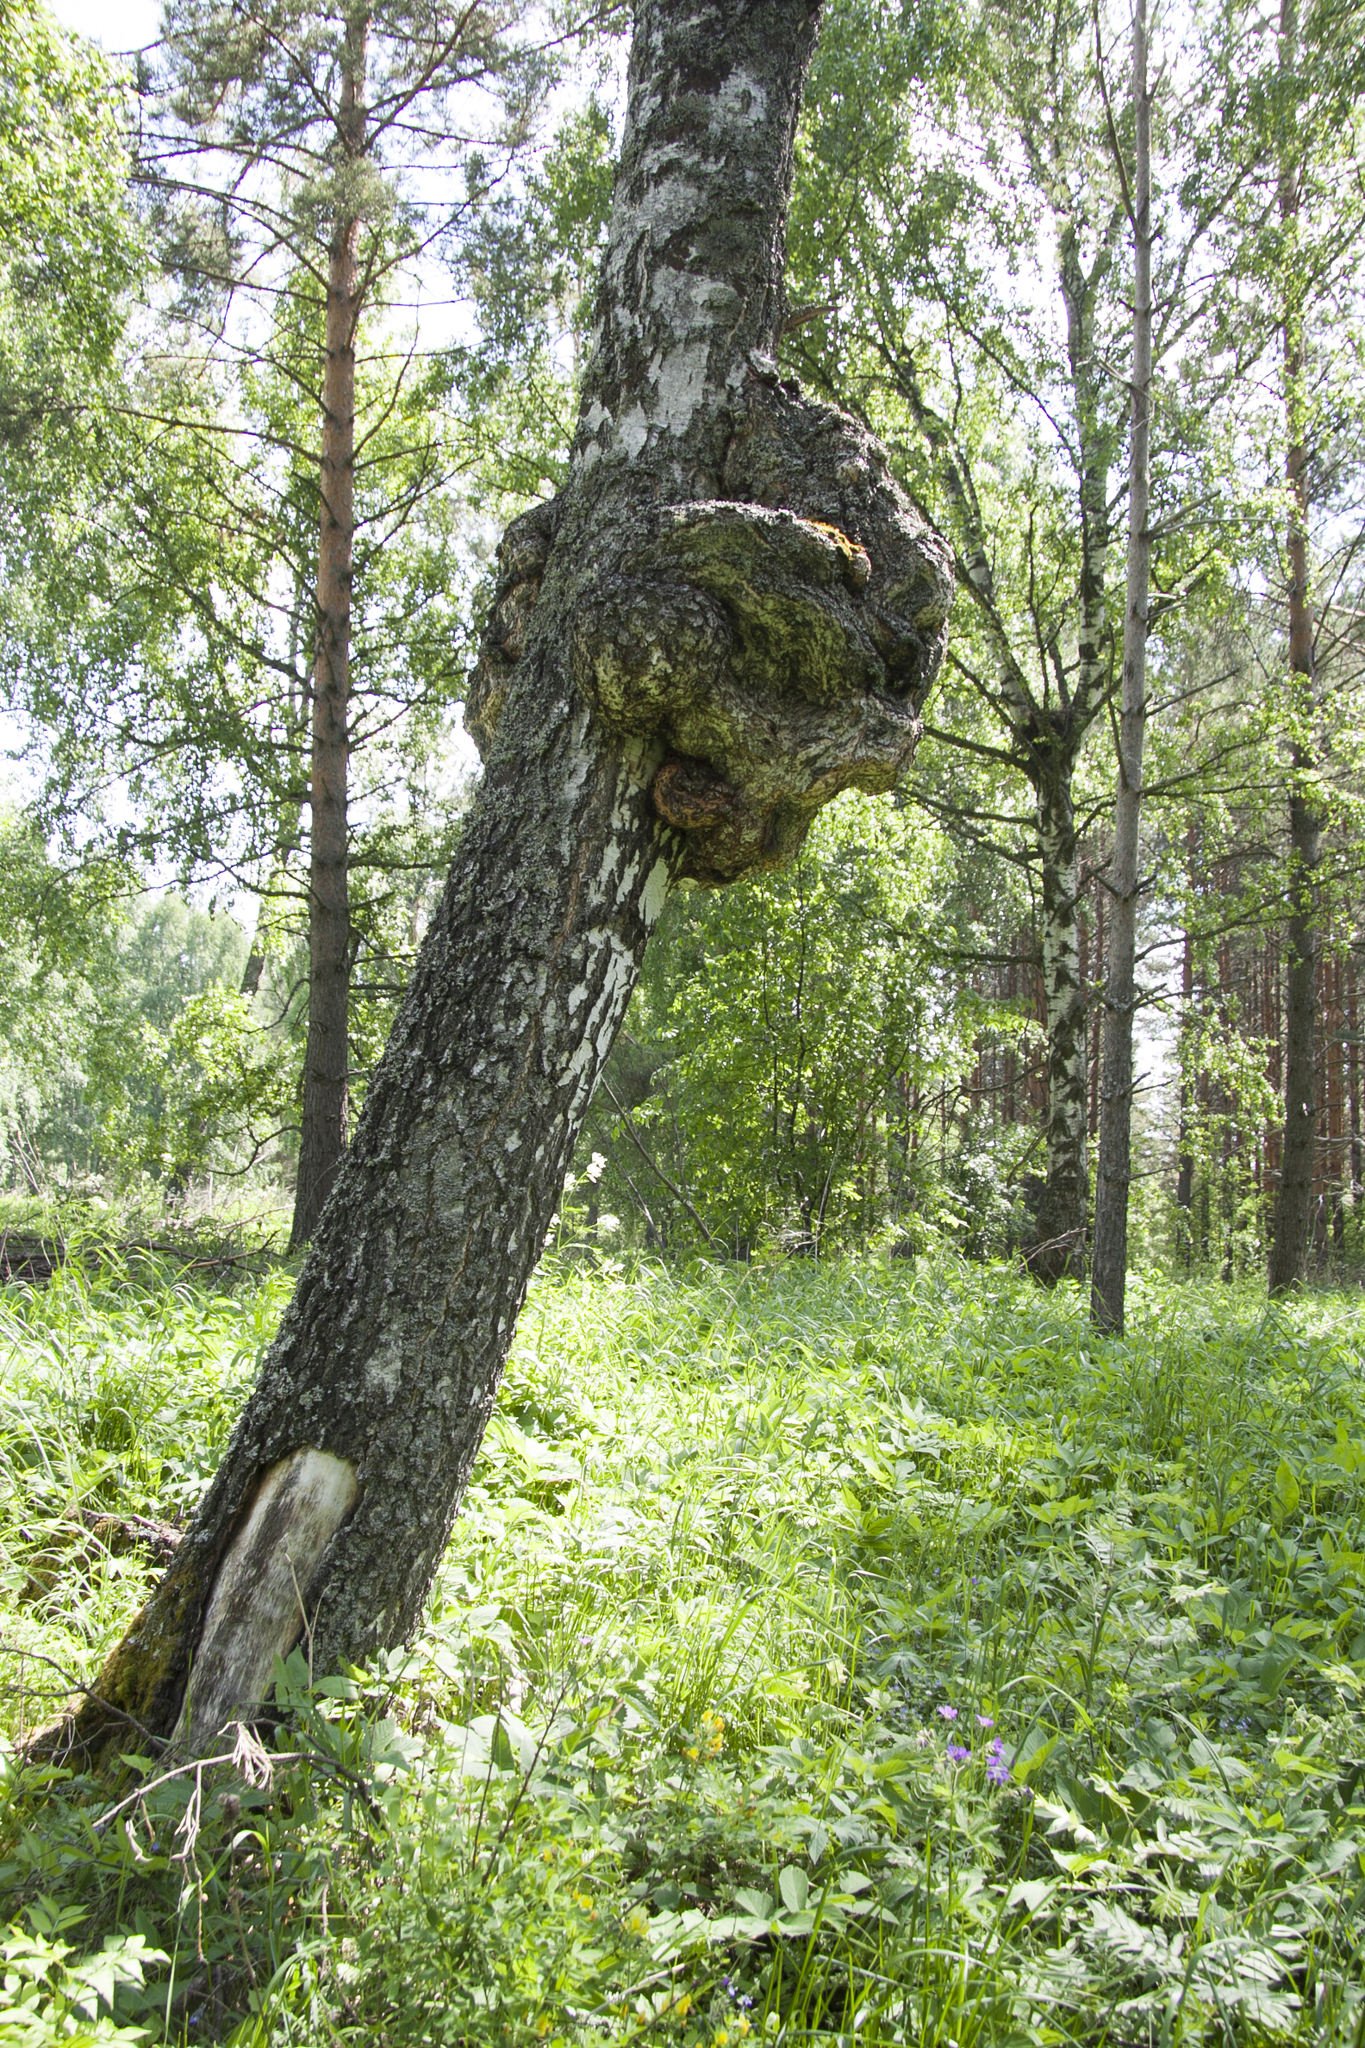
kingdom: Plantae
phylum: Tracheophyta
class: Magnoliopsida
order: Fagales
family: Betulaceae
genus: Betula
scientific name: Betula pendula
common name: Silver birch
